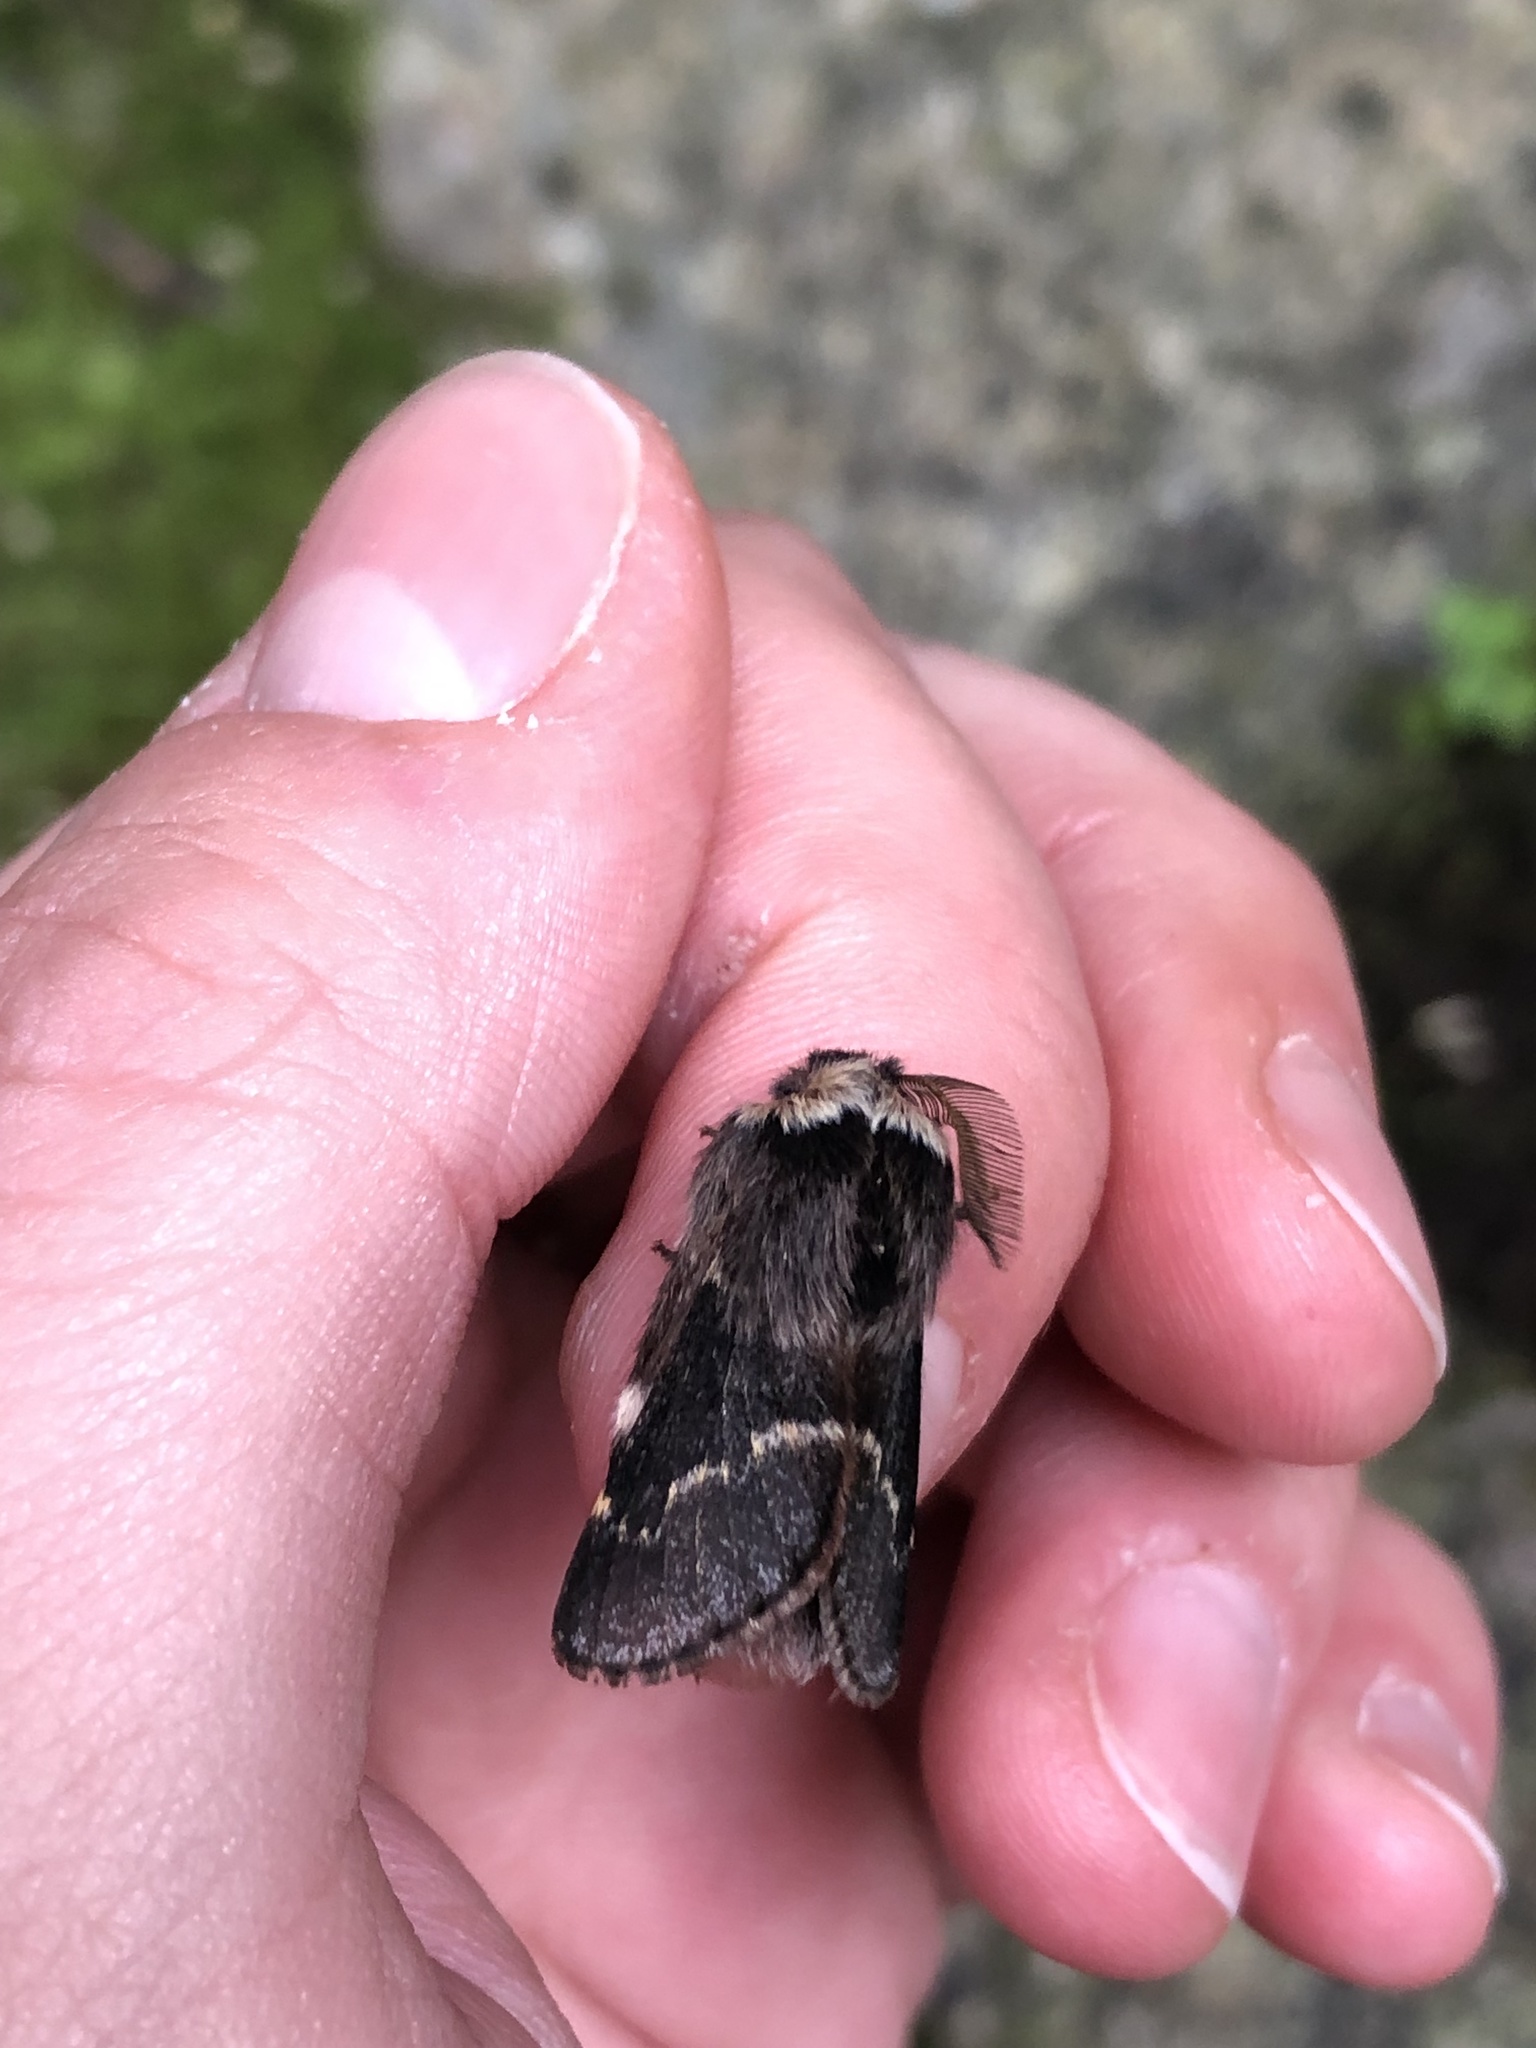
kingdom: Animalia
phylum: Arthropoda
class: Insecta
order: Lepidoptera
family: Lasiocampidae
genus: Poecilocampa
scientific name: Poecilocampa populi
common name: December moth
